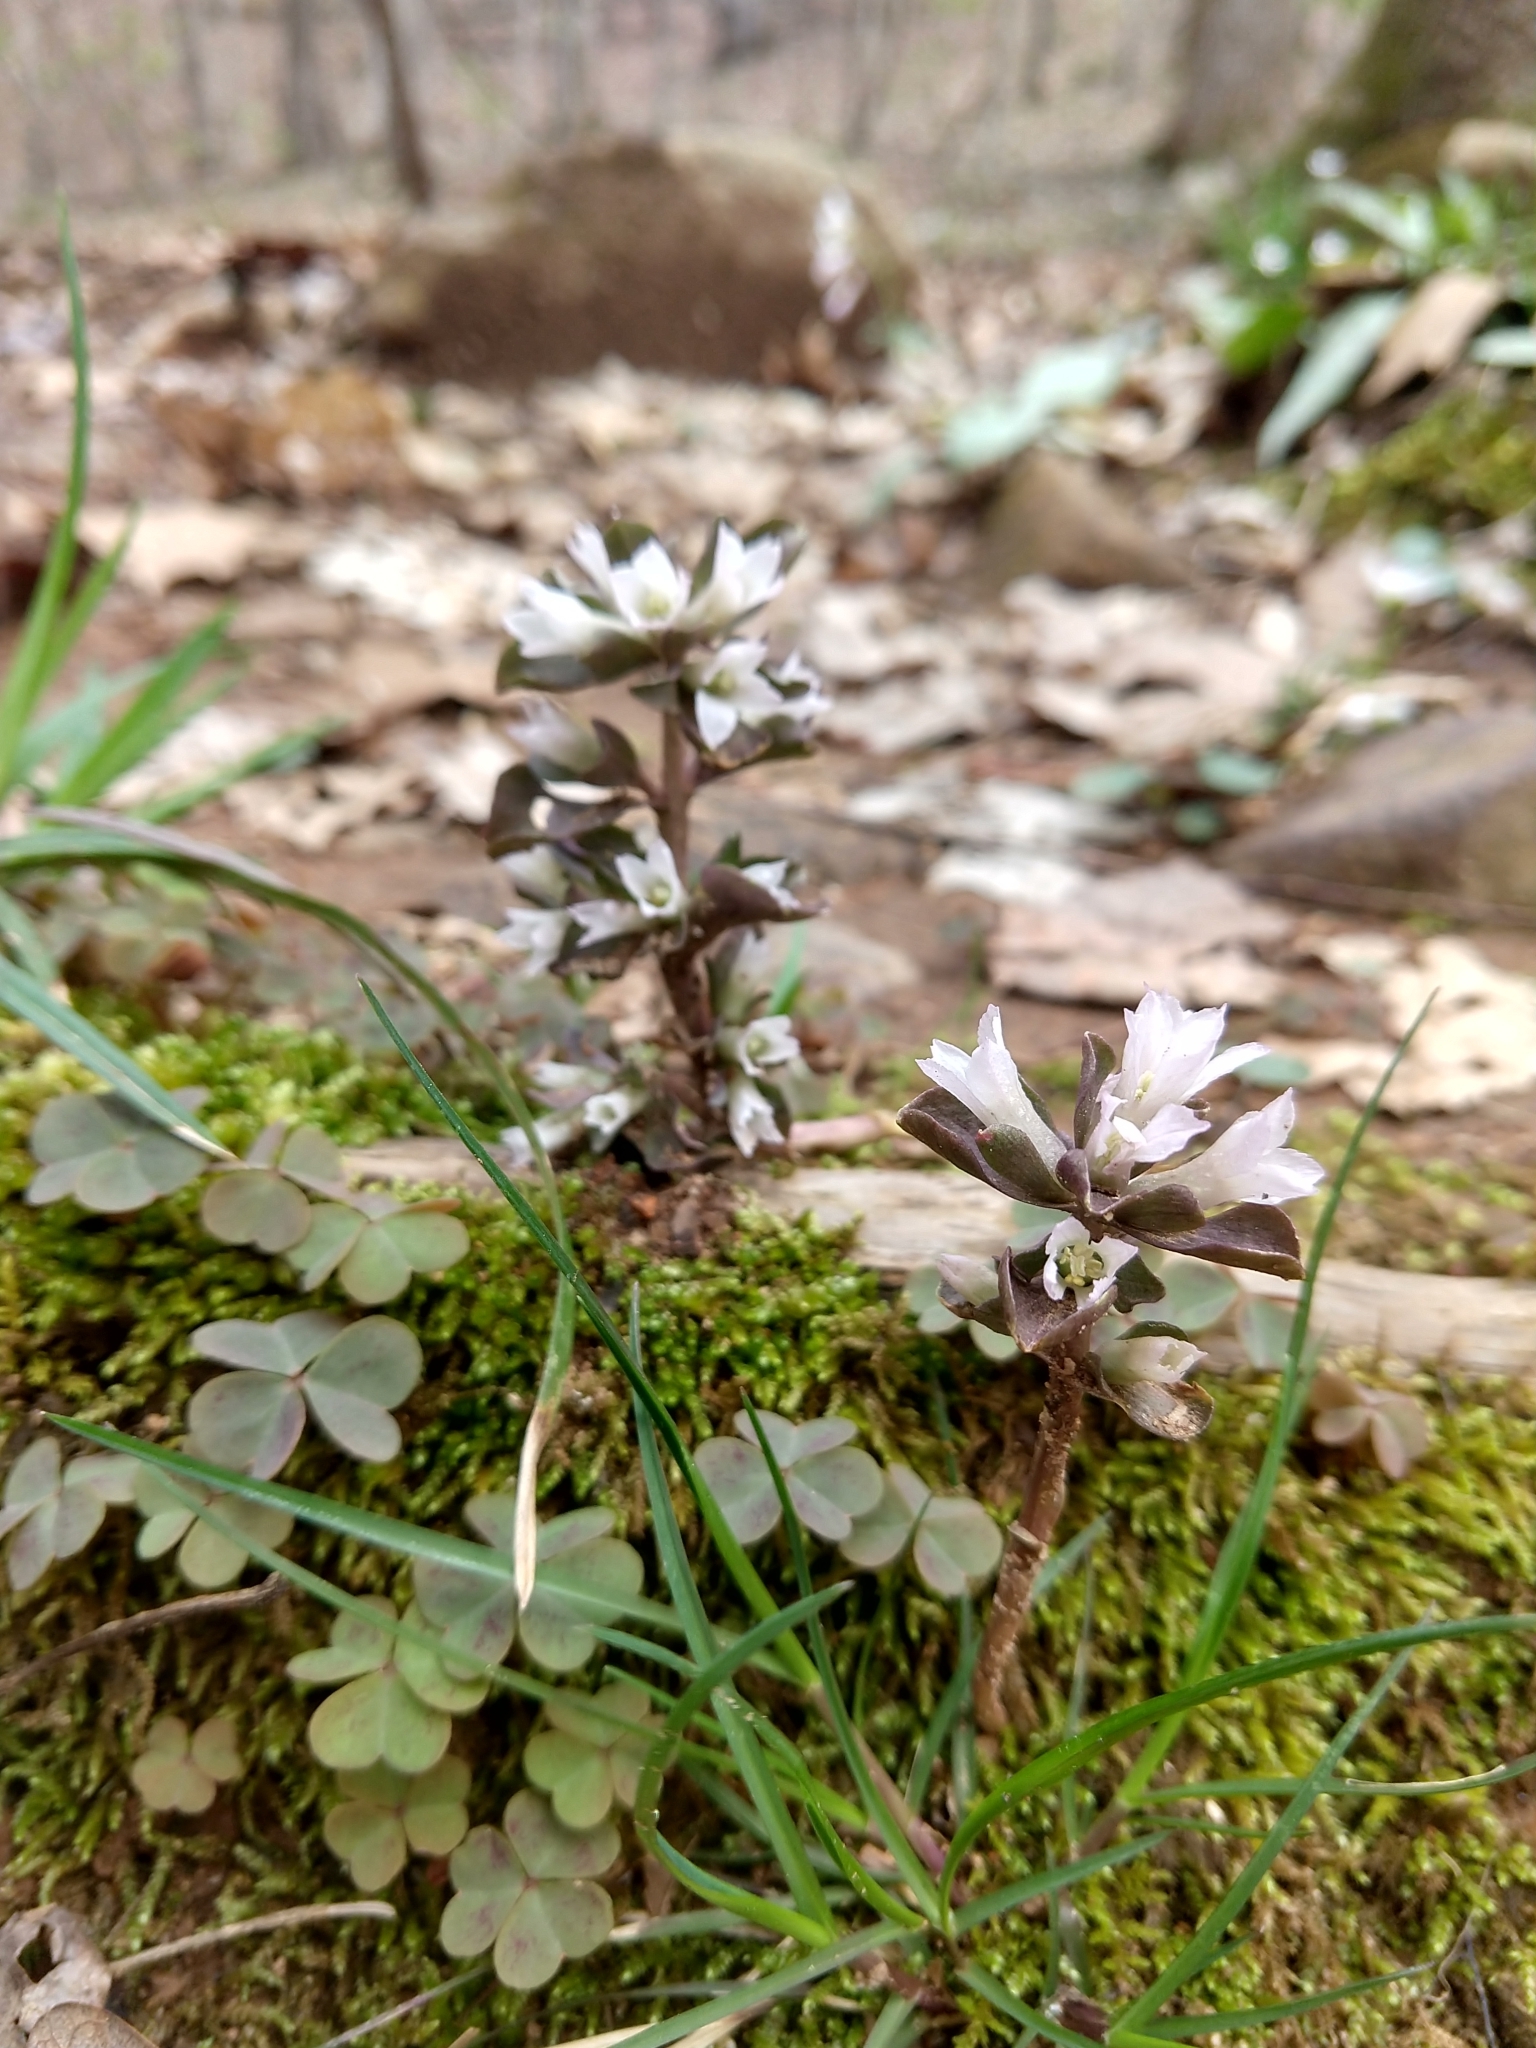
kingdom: Plantae
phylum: Tracheophyta
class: Magnoliopsida
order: Gentianales
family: Gentianaceae
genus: Obolaria
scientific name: Obolaria virginica
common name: Pennywort
